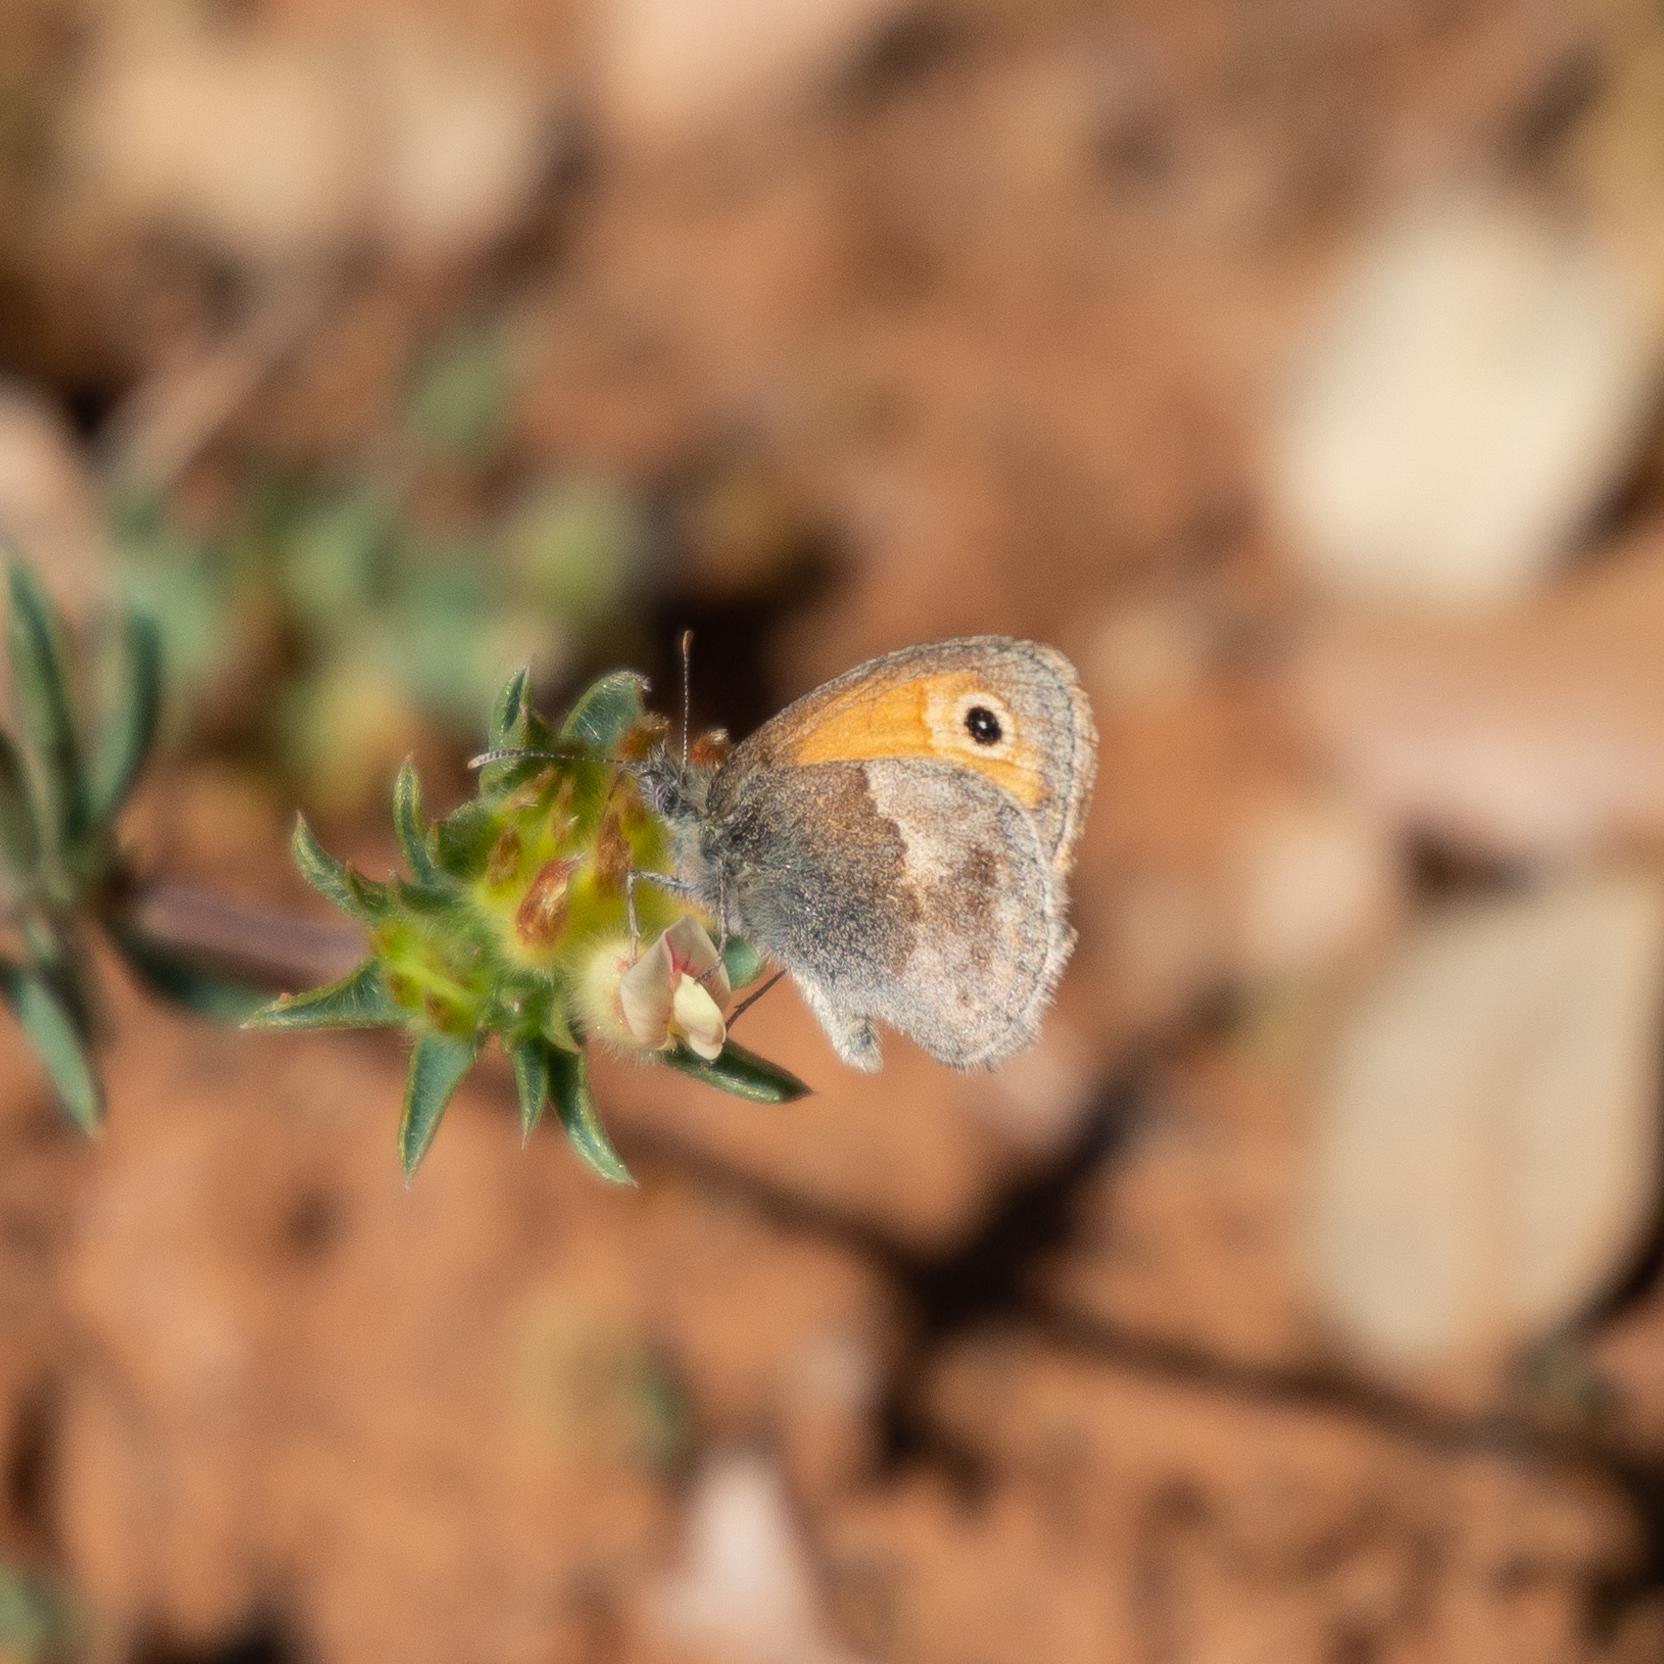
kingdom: Animalia
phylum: Arthropoda
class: Insecta
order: Lepidoptera
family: Nymphalidae
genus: Coenonympha
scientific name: Coenonympha pamphilus
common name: Small heath
